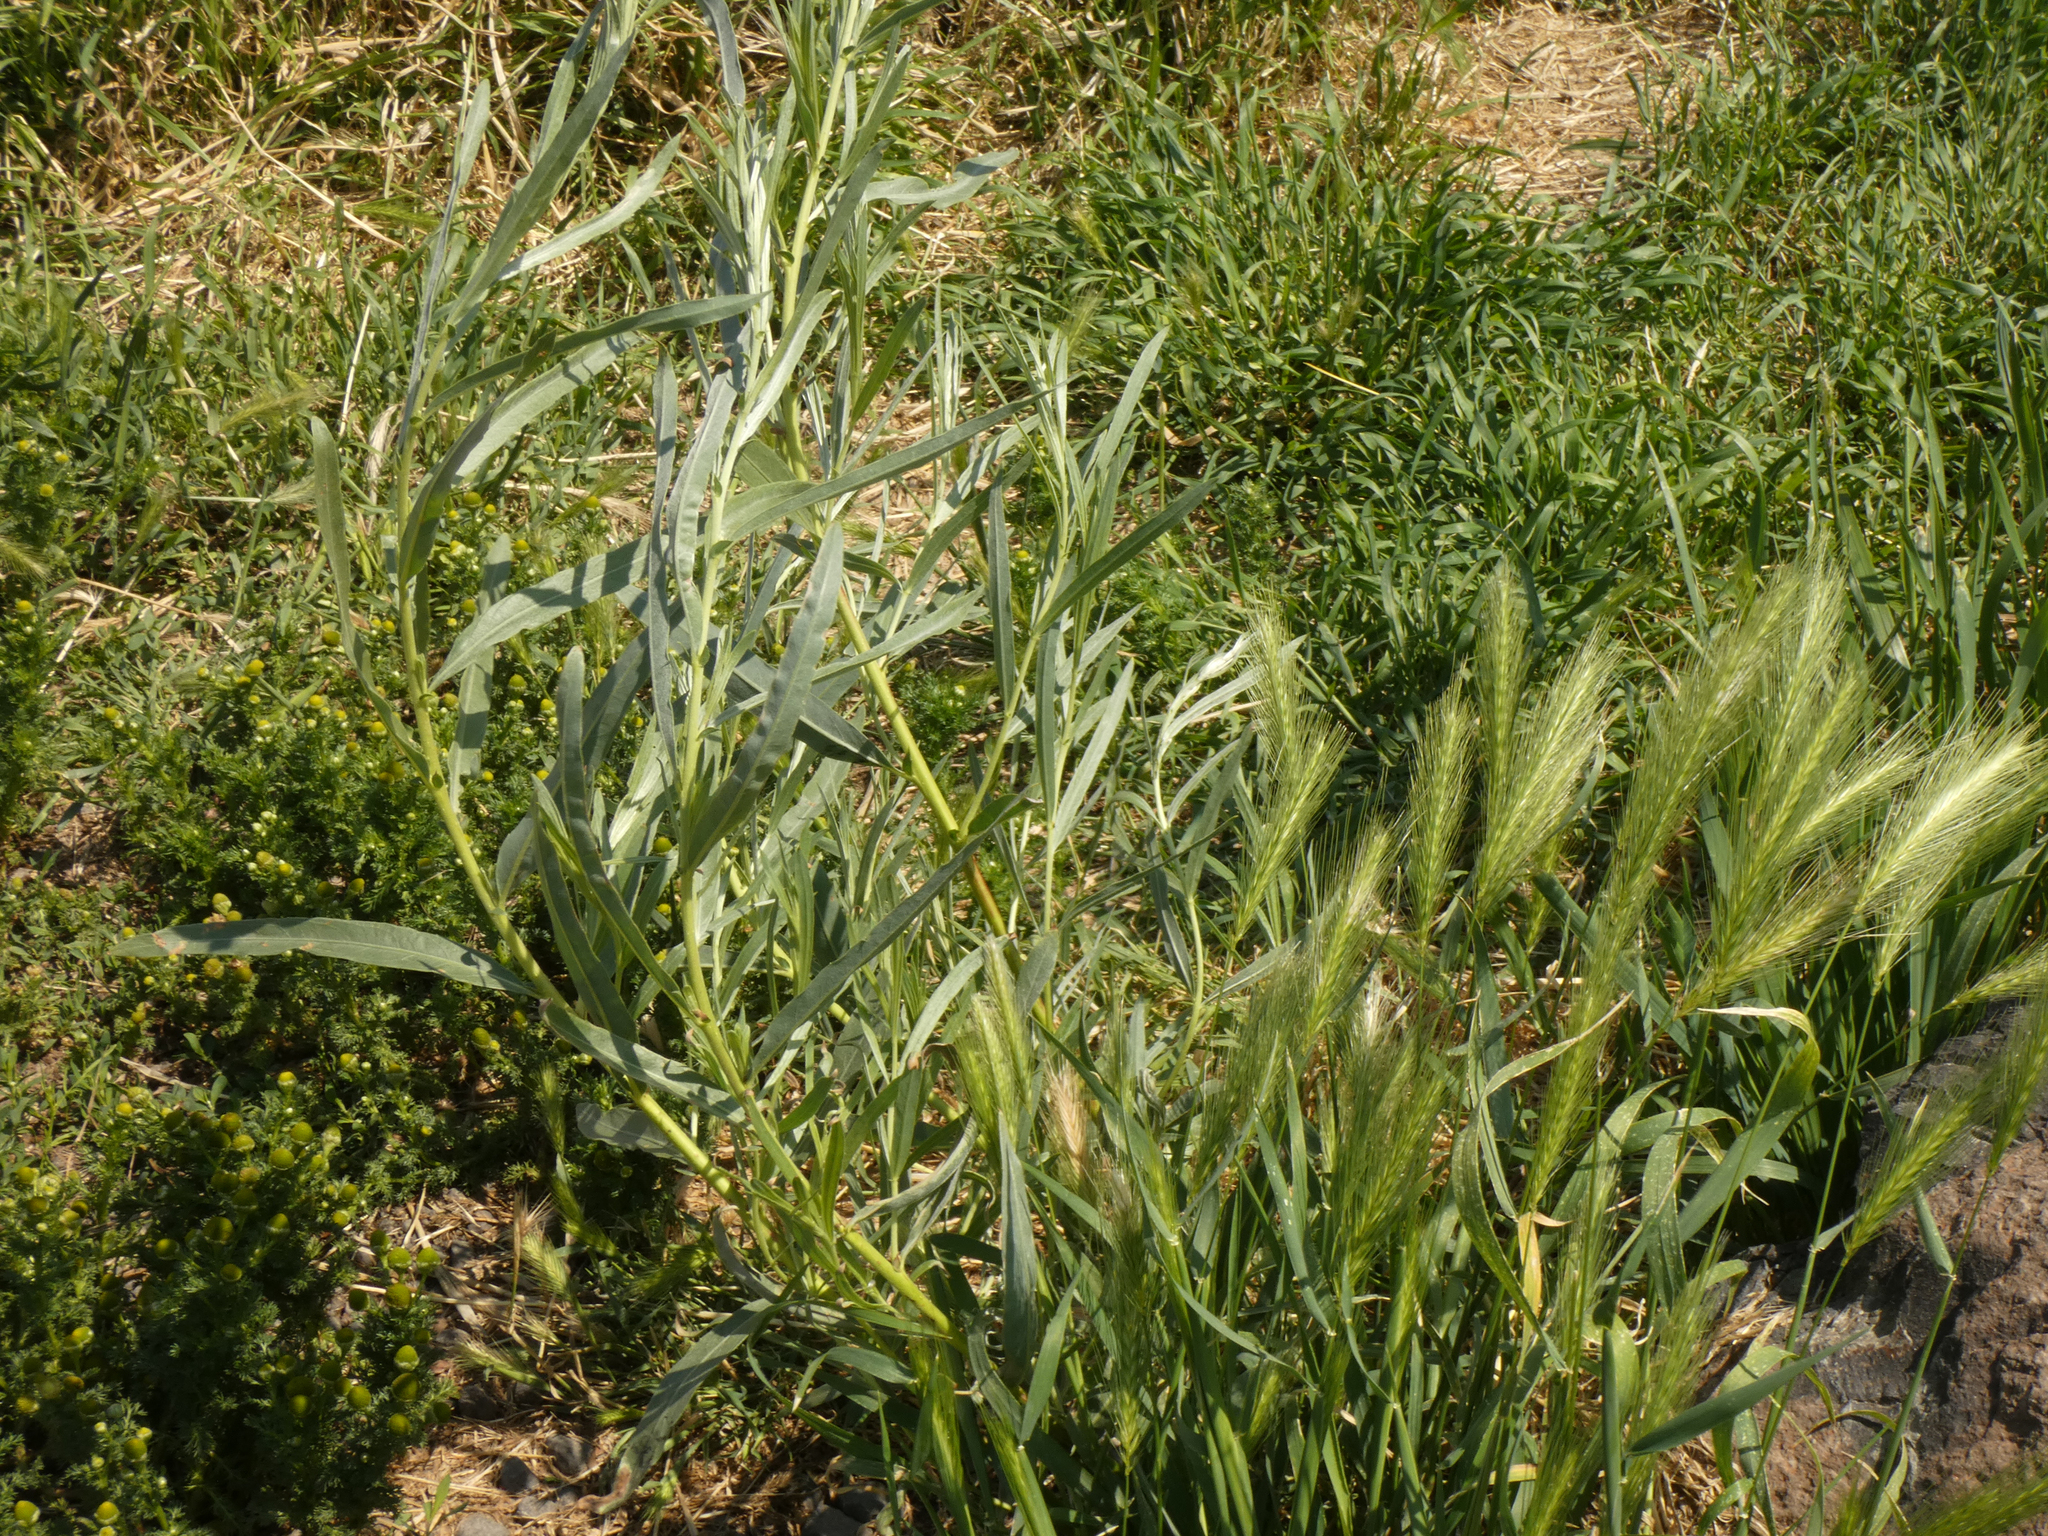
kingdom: Plantae
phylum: Tracheophyta
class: Liliopsida
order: Poales
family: Poaceae
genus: Hordeum
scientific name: Hordeum murinum
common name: Wall barley
